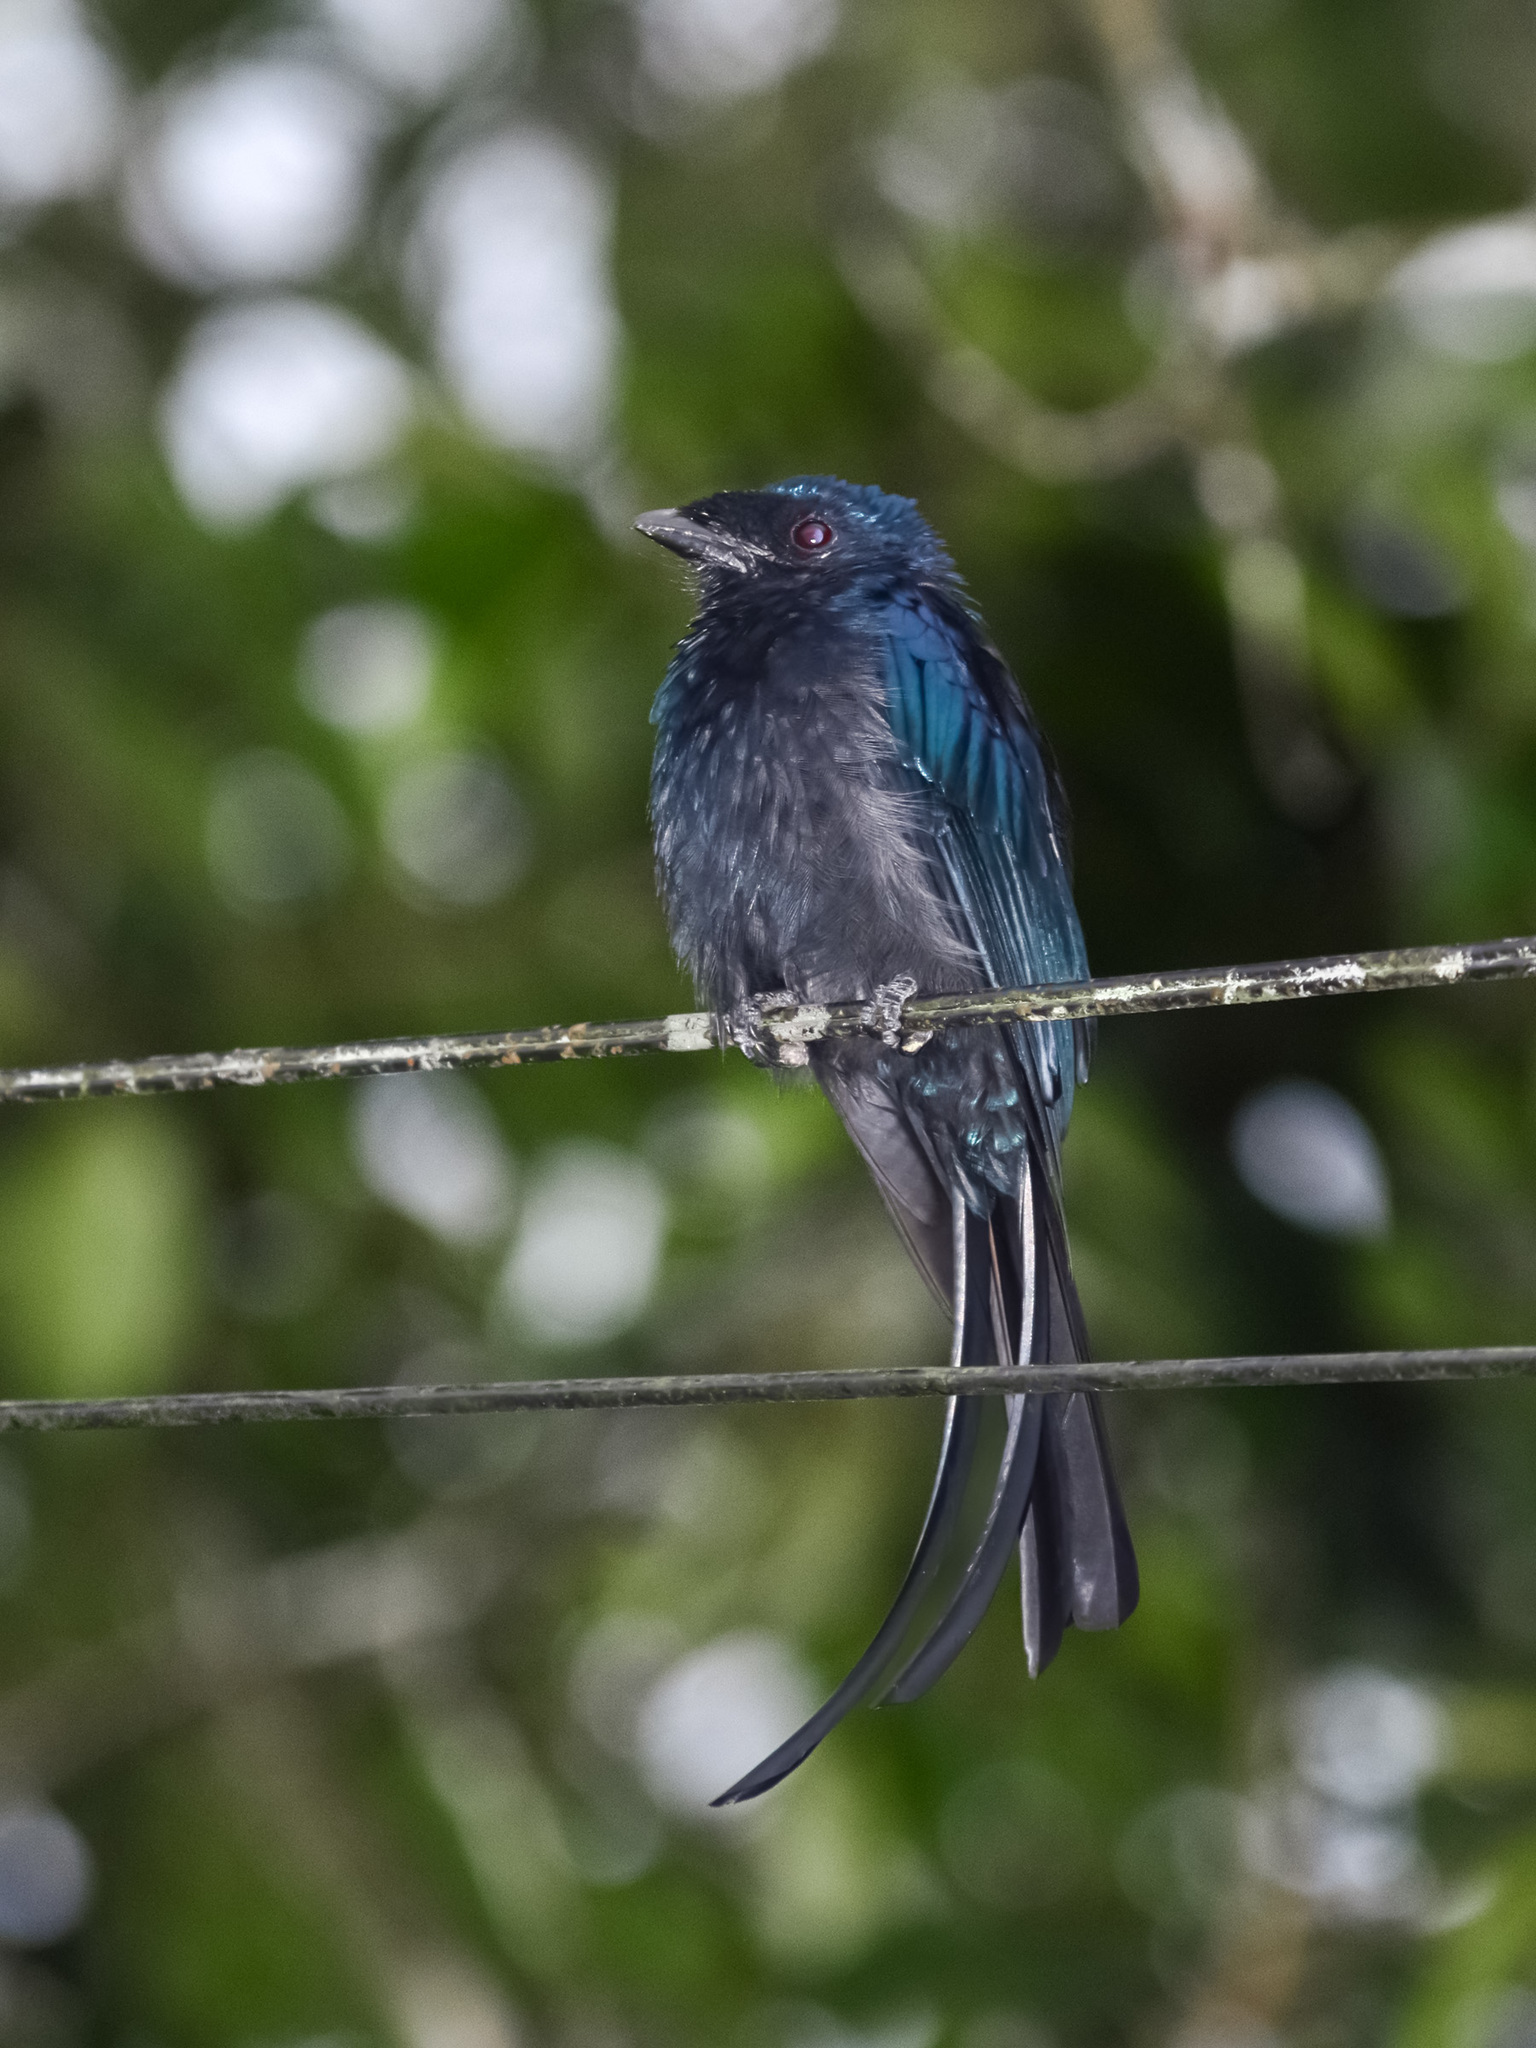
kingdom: Animalia
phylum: Chordata
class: Aves
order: Passeriformes
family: Dicruridae
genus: Dicrurus
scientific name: Dicrurus remifer
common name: Lesser racket-tailed drongo
